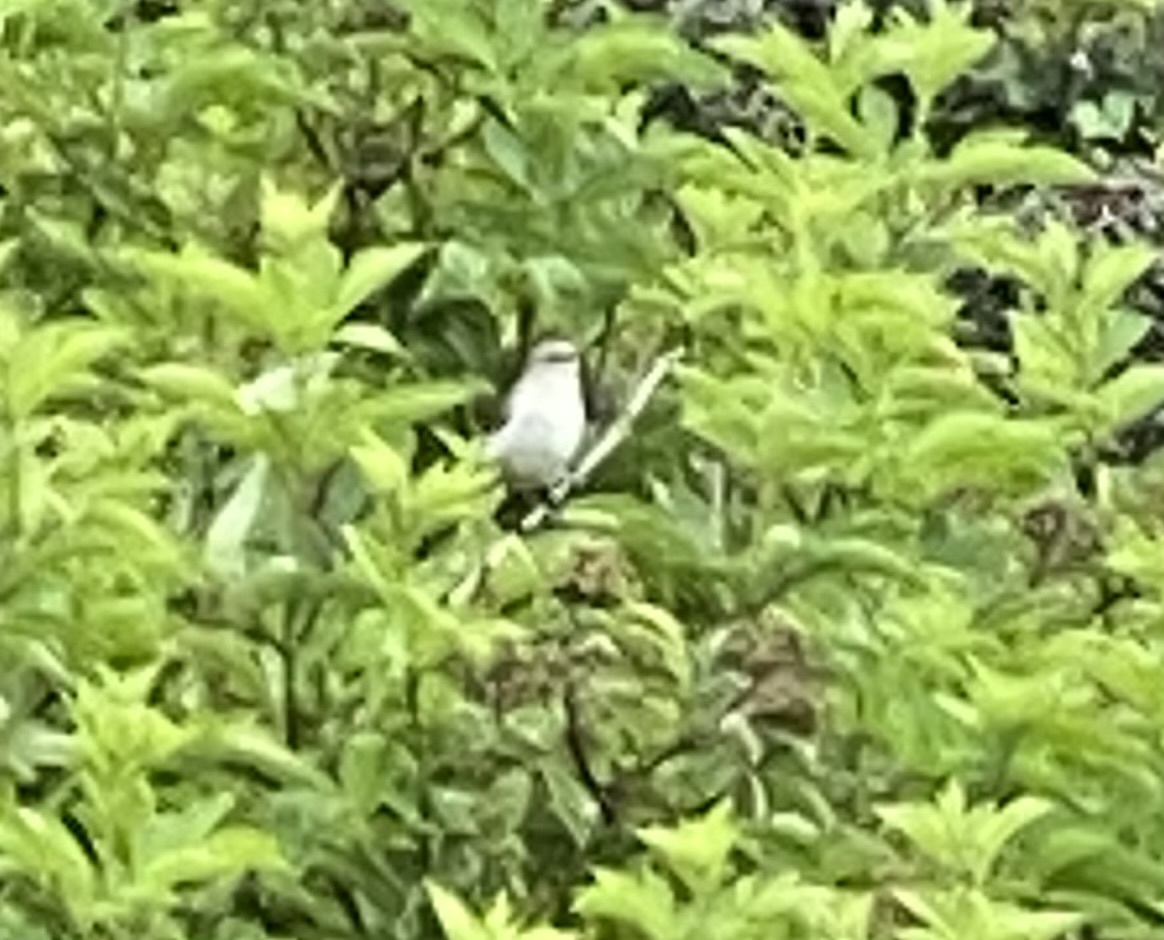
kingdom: Animalia
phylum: Chordata
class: Aves
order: Passeriformes
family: Mimidae
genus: Mimus
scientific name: Mimus polyglottos
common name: Northern mockingbird
